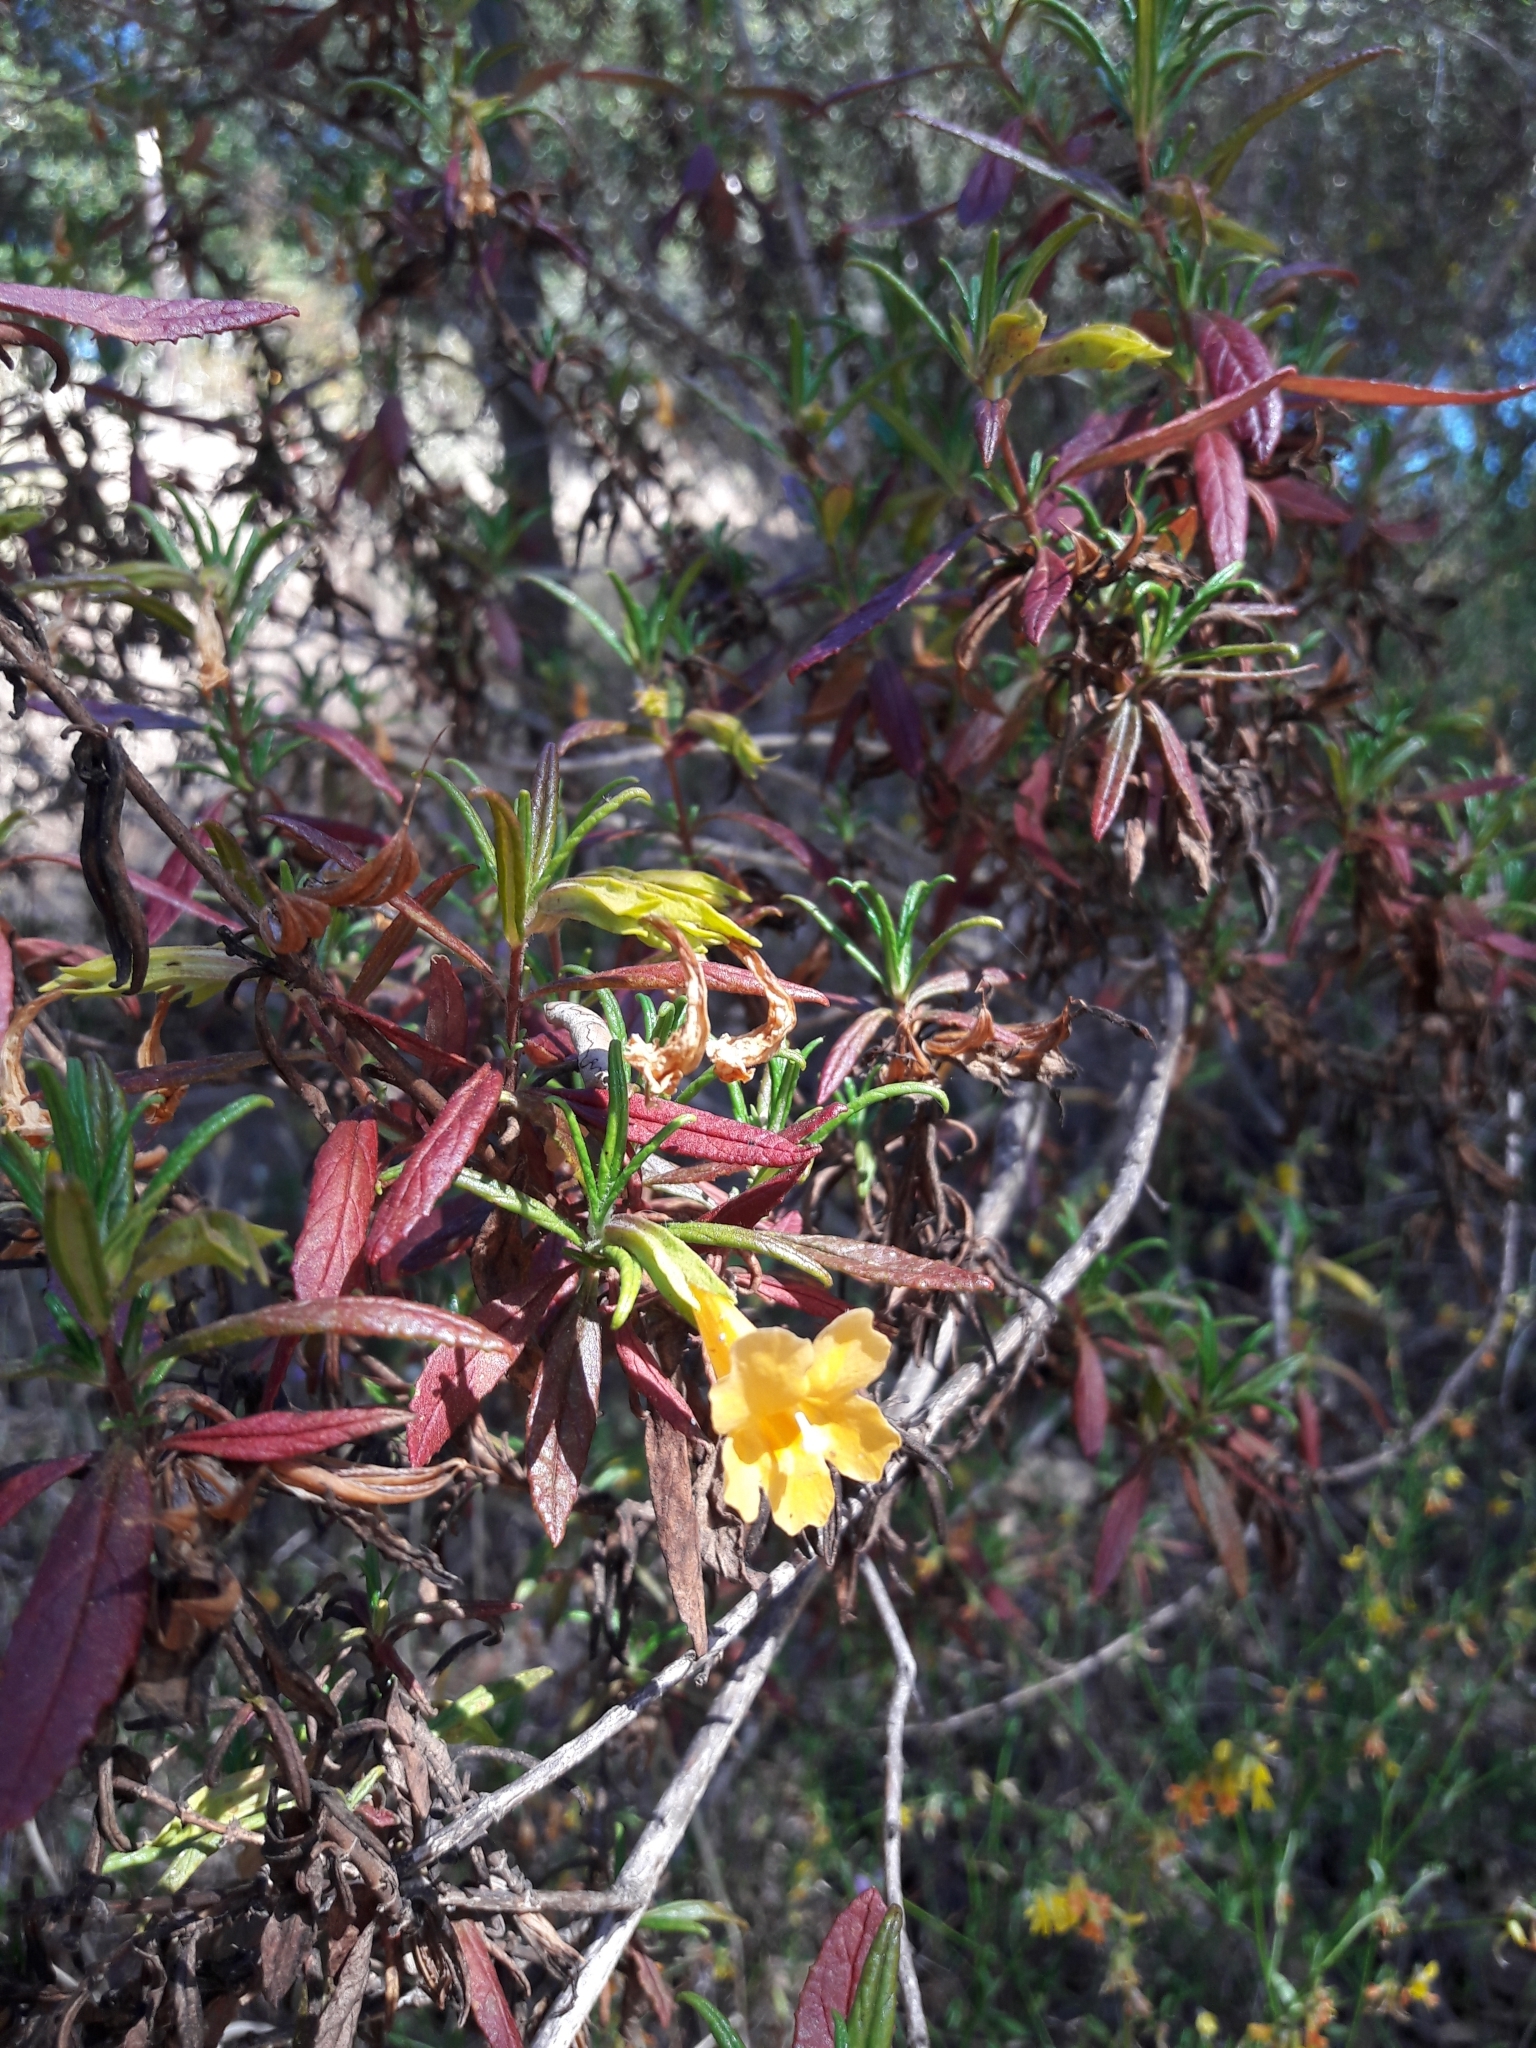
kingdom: Plantae
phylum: Tracheophyta
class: Magnoliopsida
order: Lamiales
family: Phrymaceae
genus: Diplacus
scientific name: Diplacus aurantiacus
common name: Bush monkey-flower
